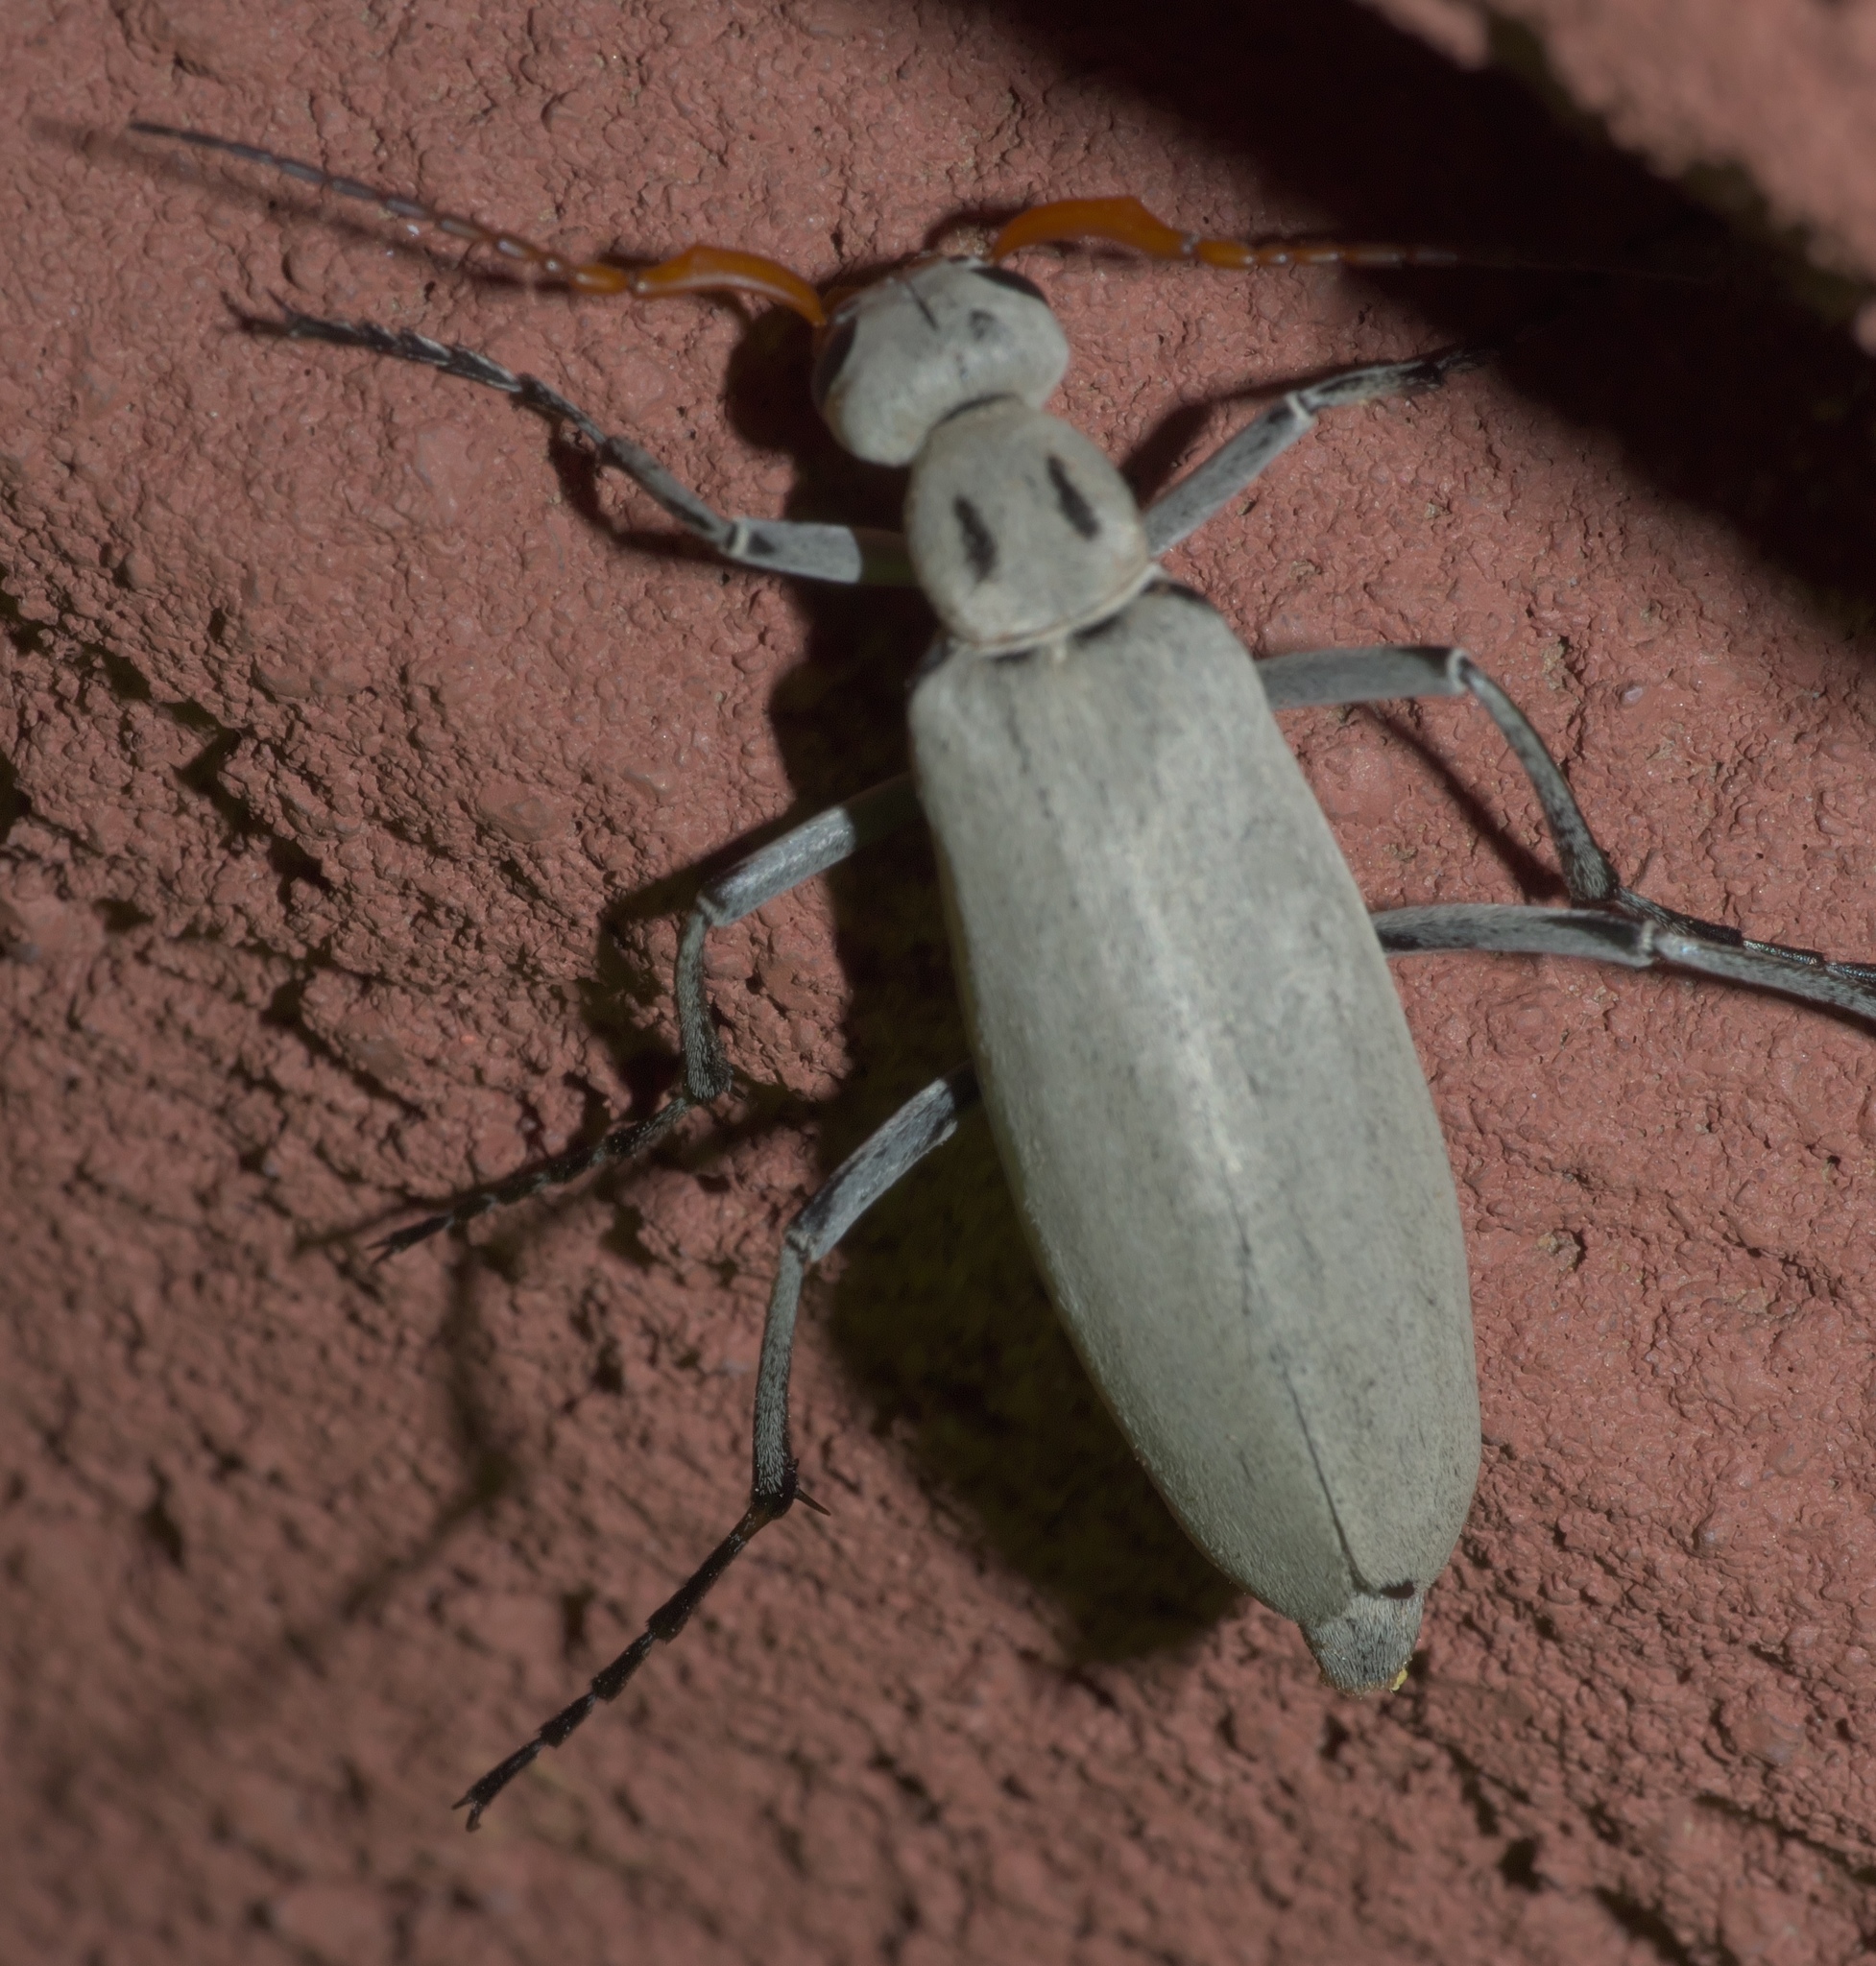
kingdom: Animalia
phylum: Arthropoda
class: Insecta
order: Coleoptera
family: Meloidae
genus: Epicauta
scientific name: Epicauta albida
